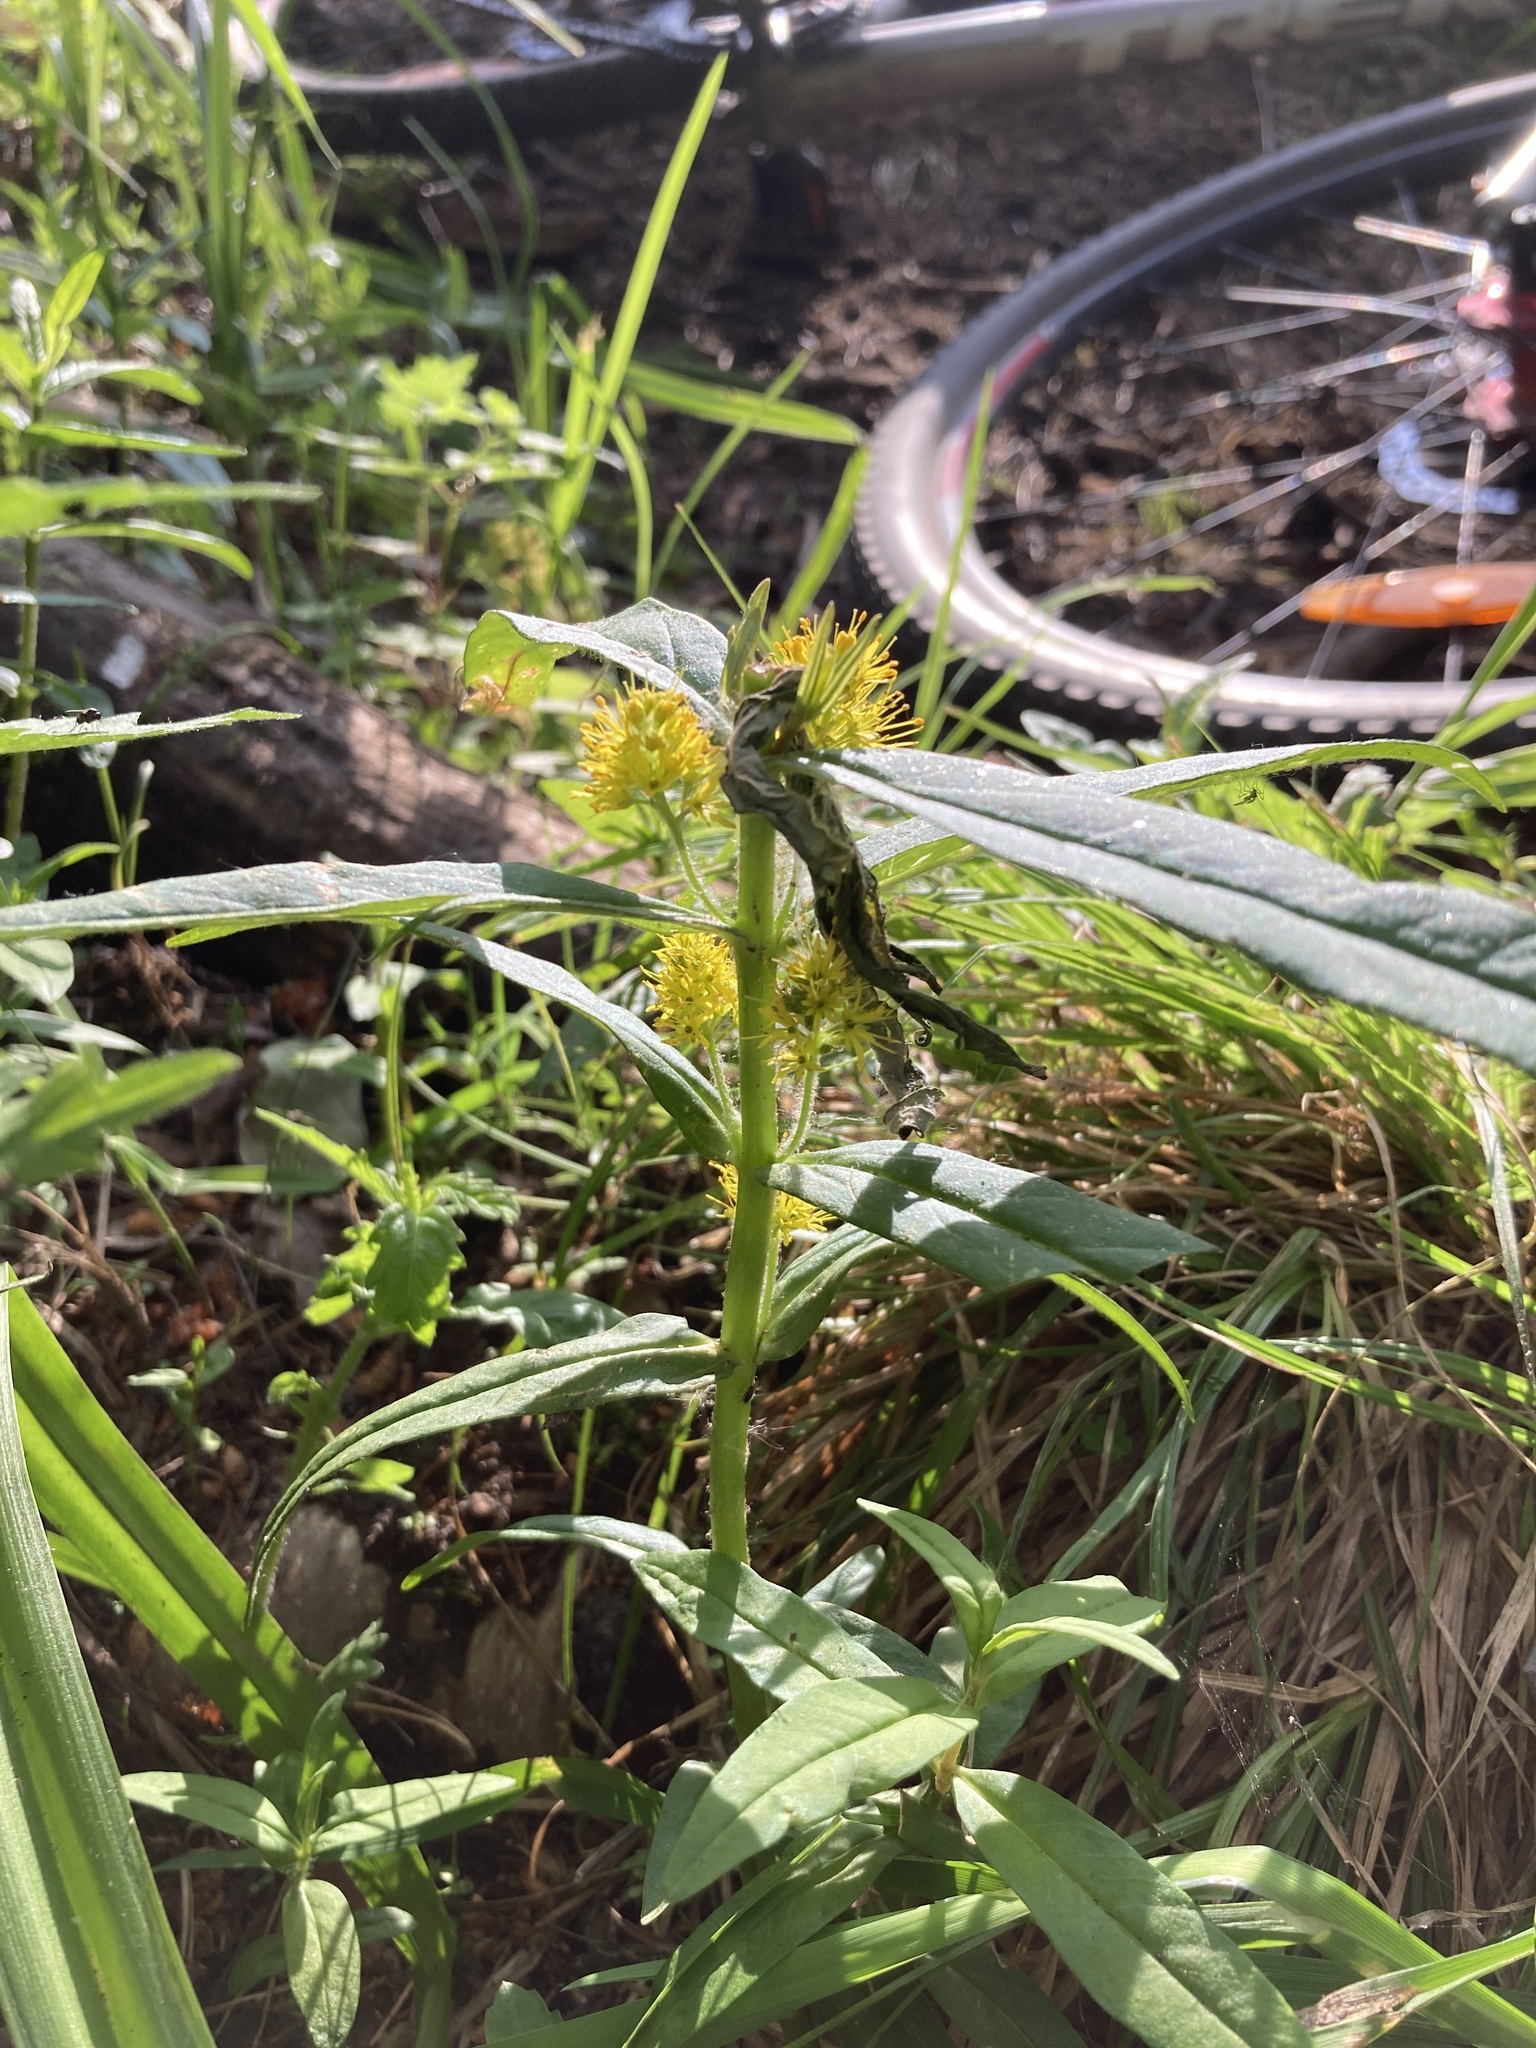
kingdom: Plantae
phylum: Tracheophyta
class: Magnoliopsida
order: Ericales
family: Primulaceae
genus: Lysimachia
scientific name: Lysimachia thyrsiflora
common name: Tufted loosestrife
